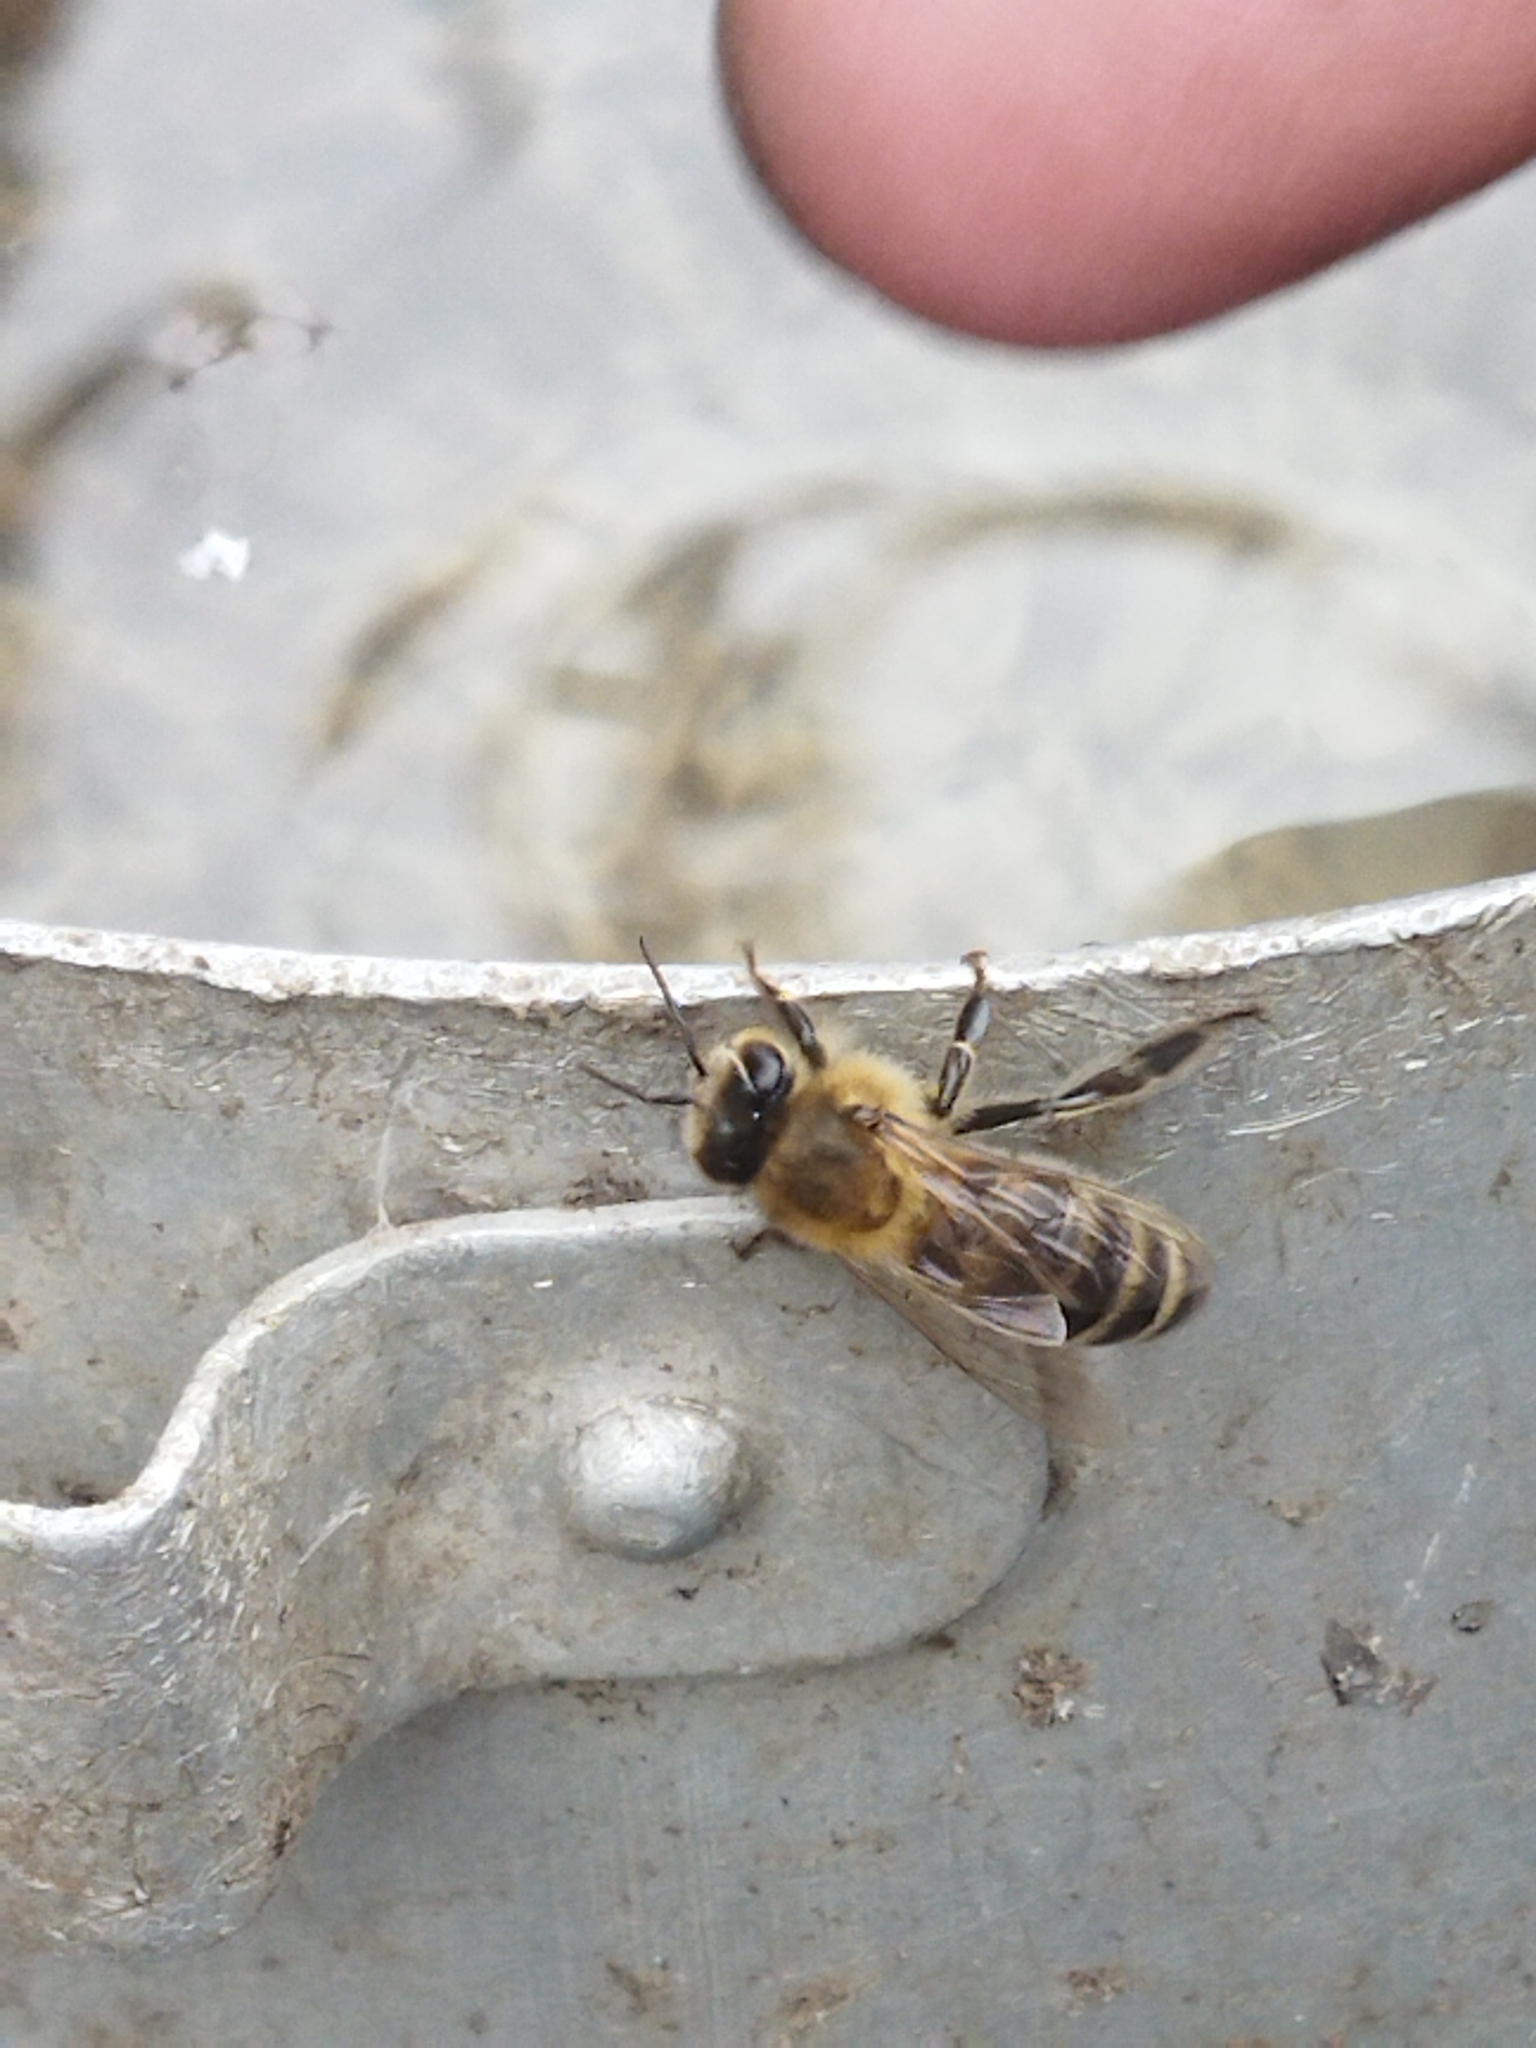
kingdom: Animalia
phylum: Arthropoda
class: Insecta
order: Hymenoptera
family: Apidae
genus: Apis
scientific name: Apis mellifera
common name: Honey bee
